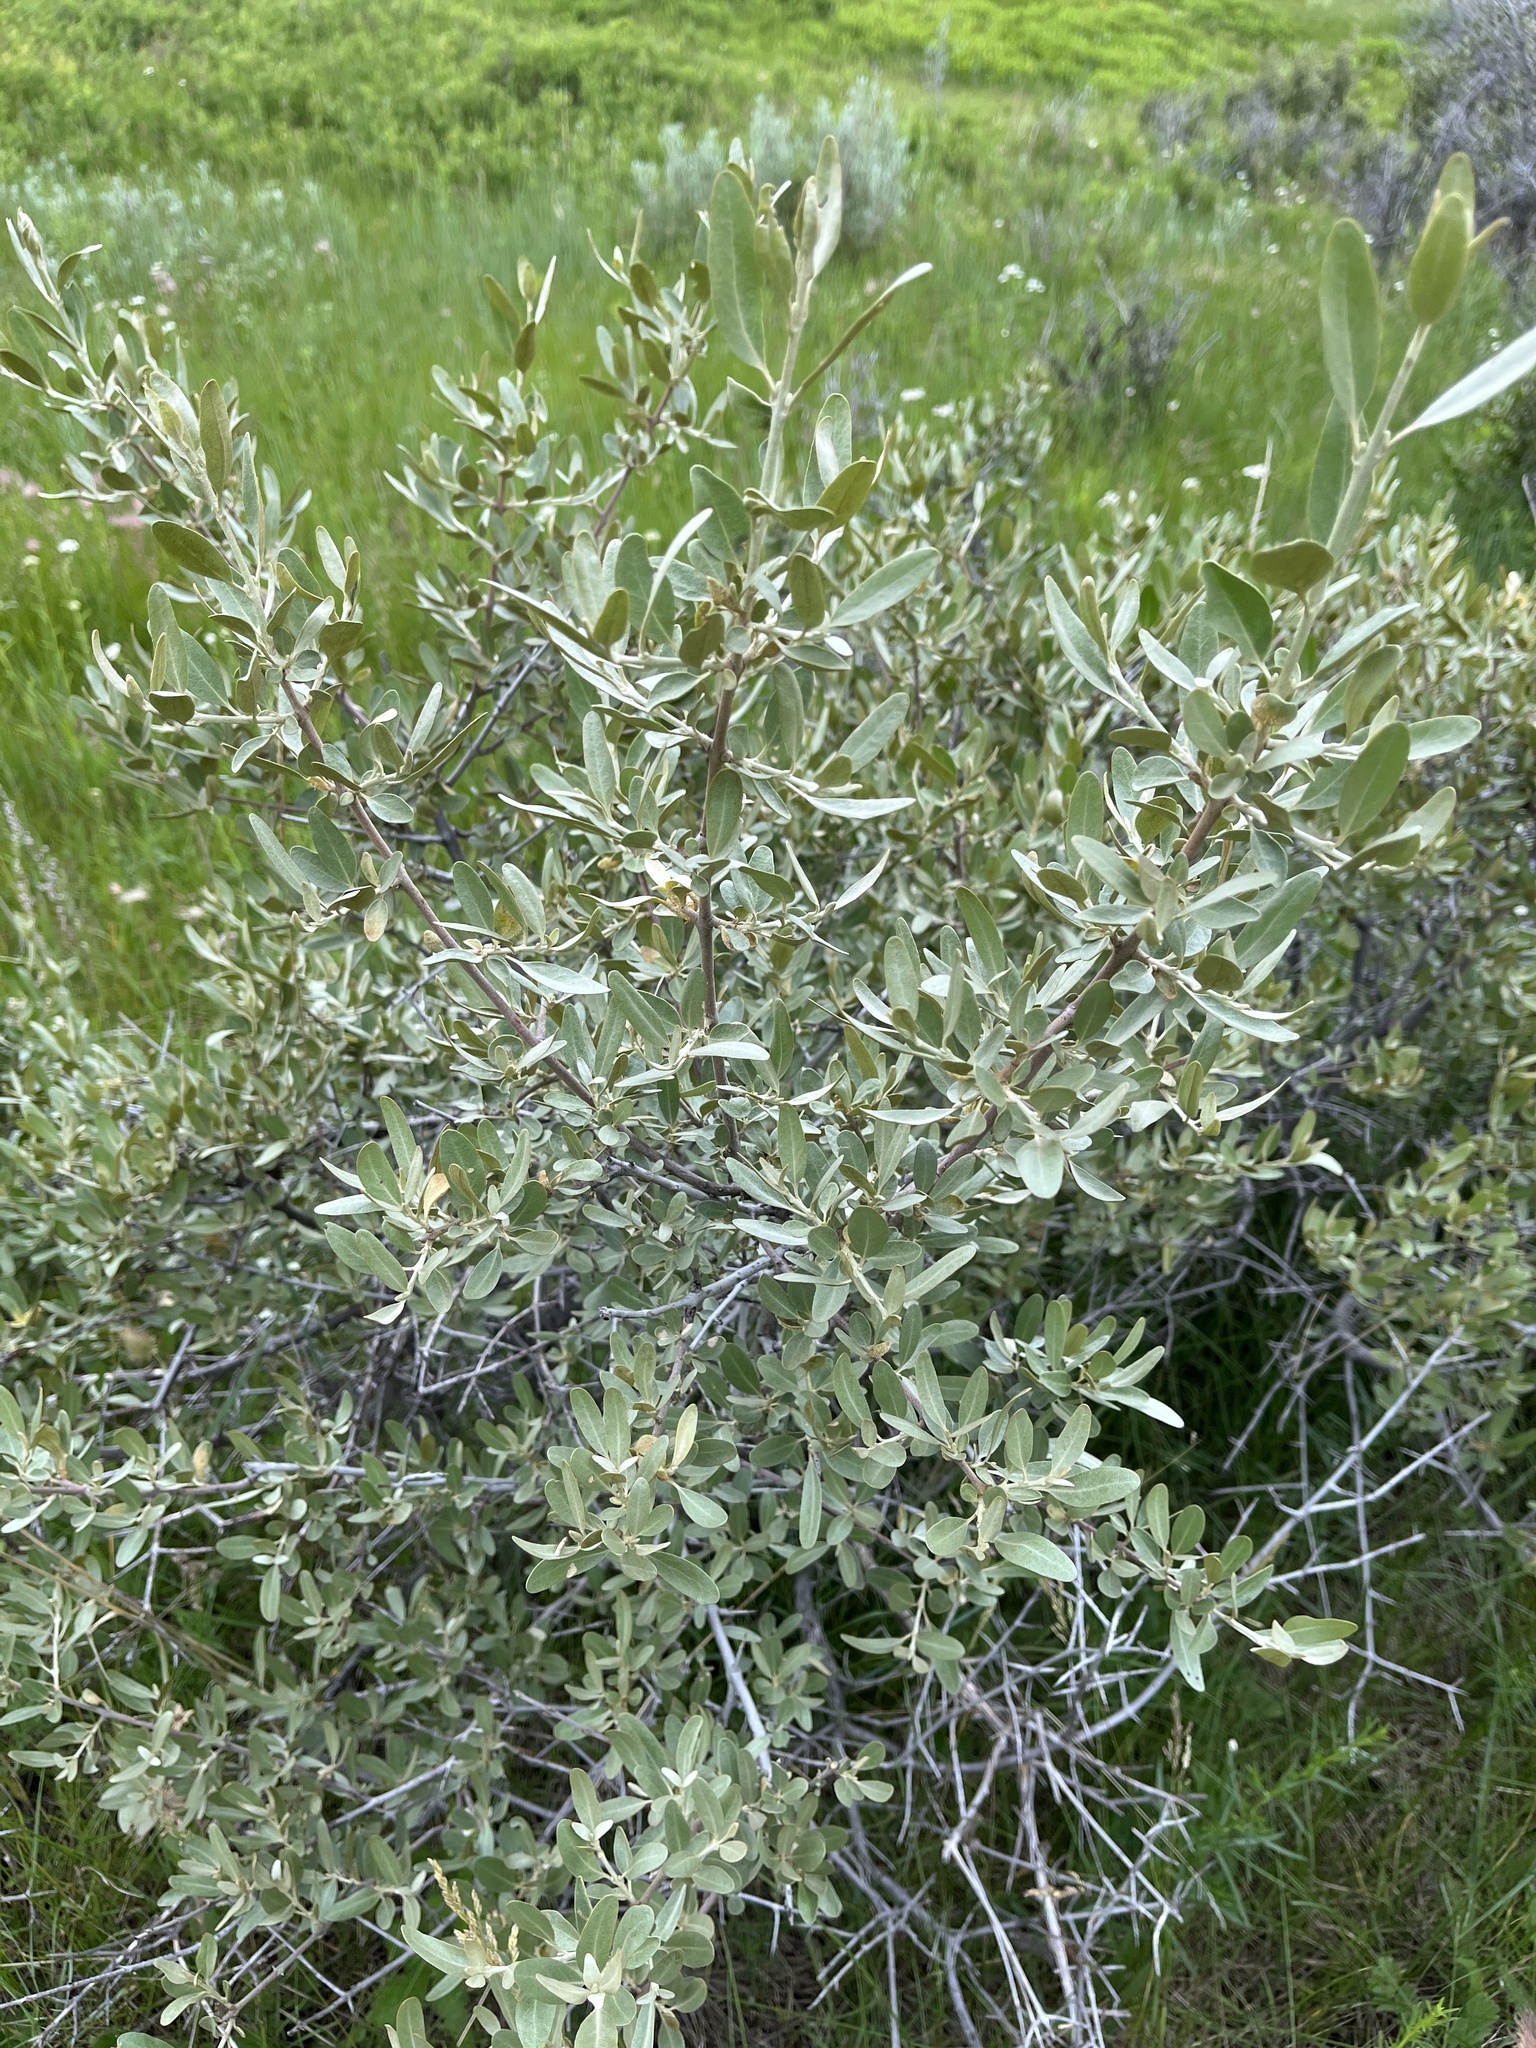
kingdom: Plantae
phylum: Tracheophyta
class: Magnoliopsida
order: Rosales
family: Elaeagnaceae
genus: Shepherdia
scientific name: Shepherdia argentea
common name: Silver buffaloberry
